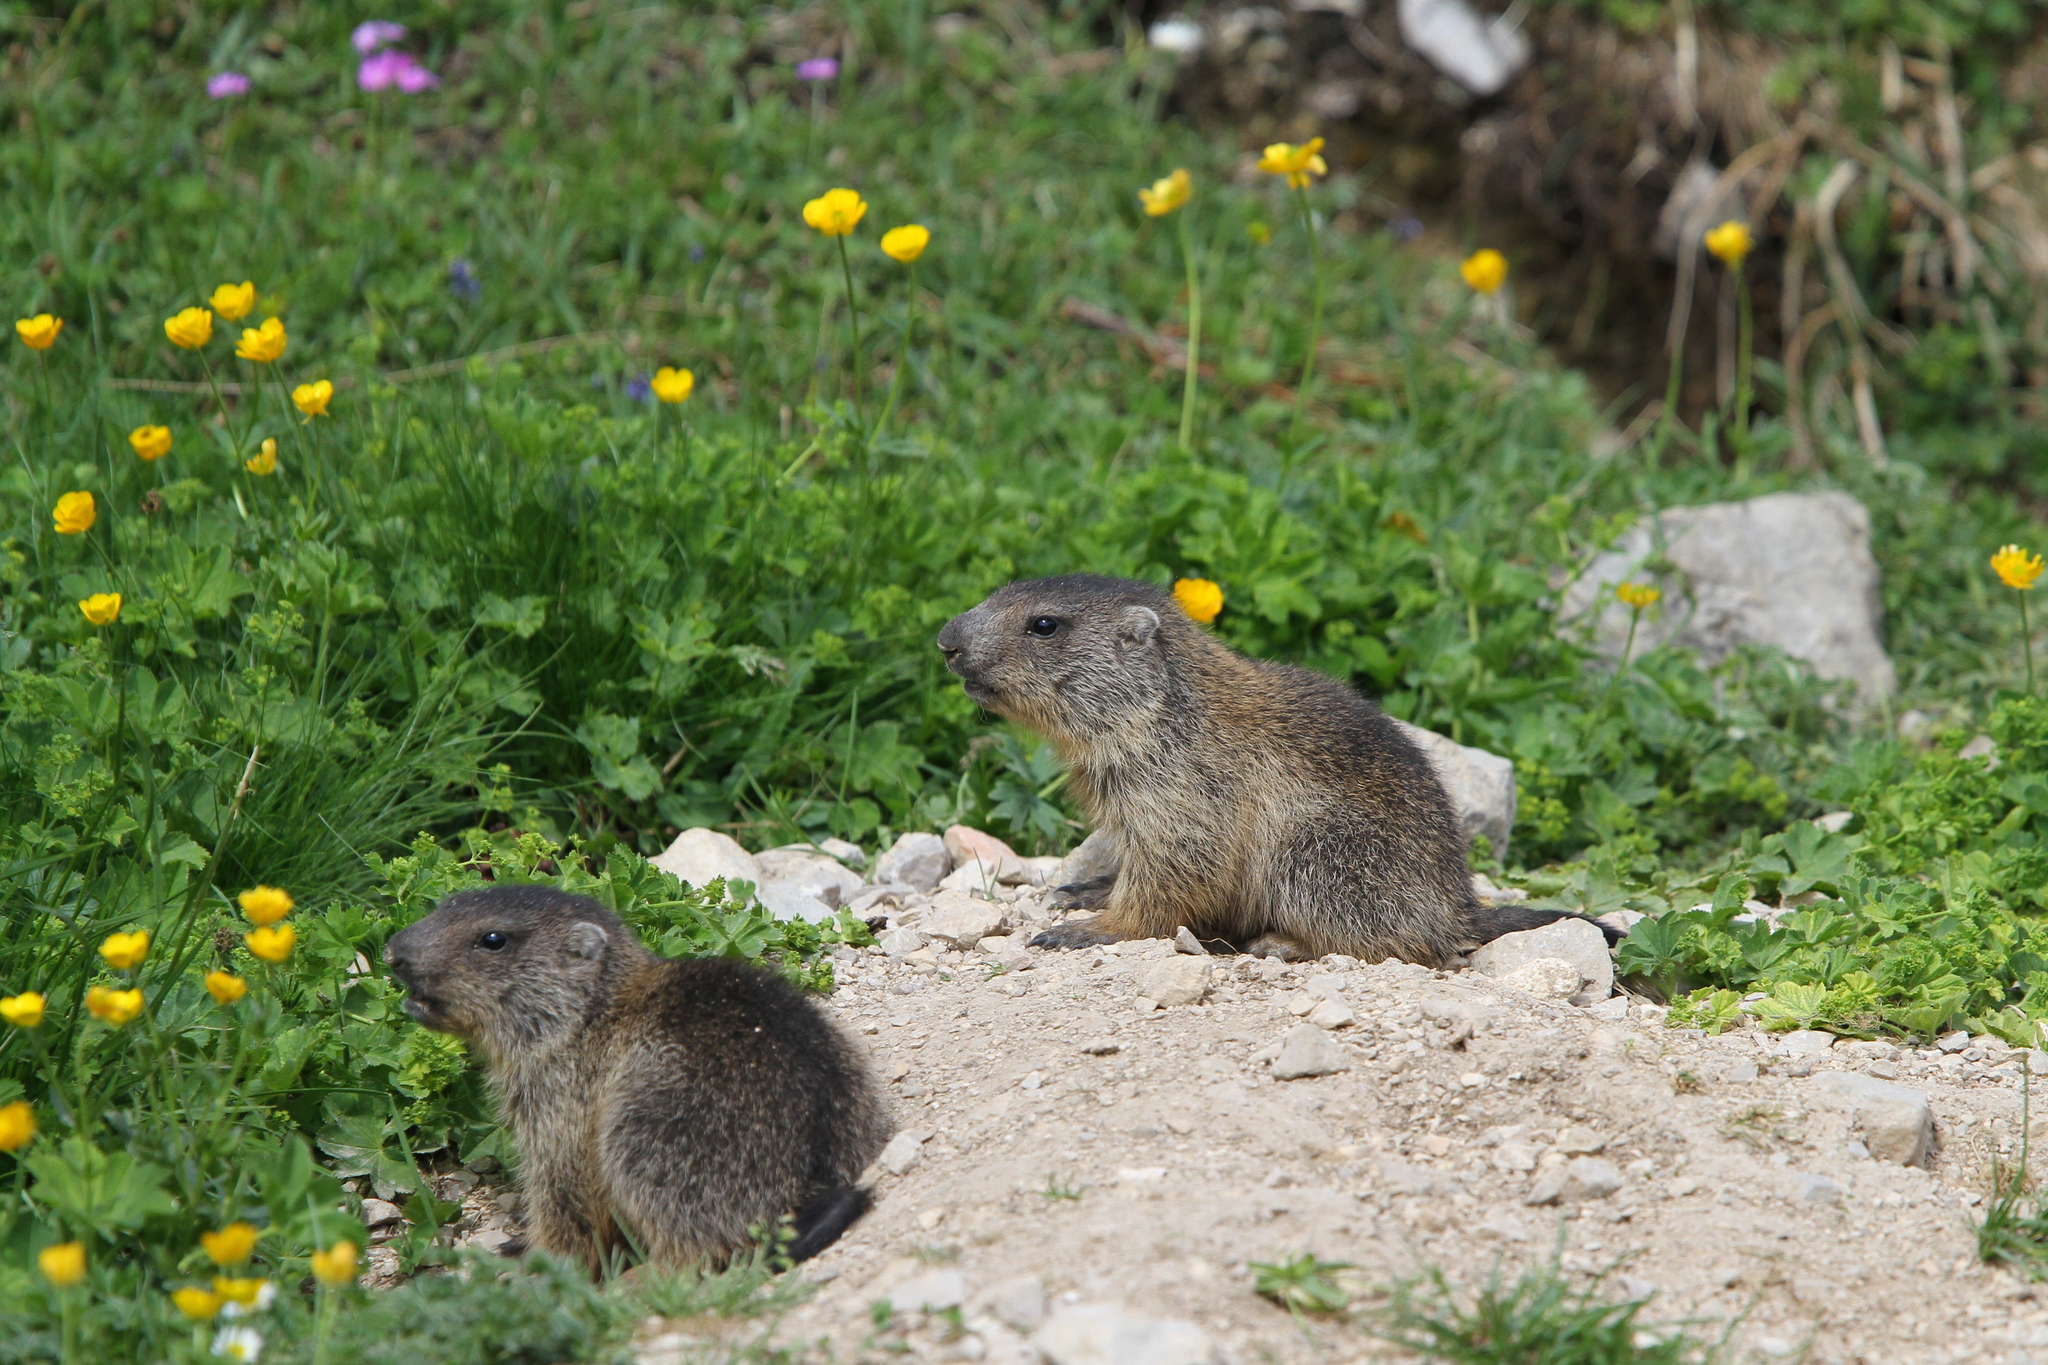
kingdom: Animalia
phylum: Chordata
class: Mammalia
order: Rodentia
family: Sciuridae
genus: Marmota
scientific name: Marmota marmota
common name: Alpine marmot
